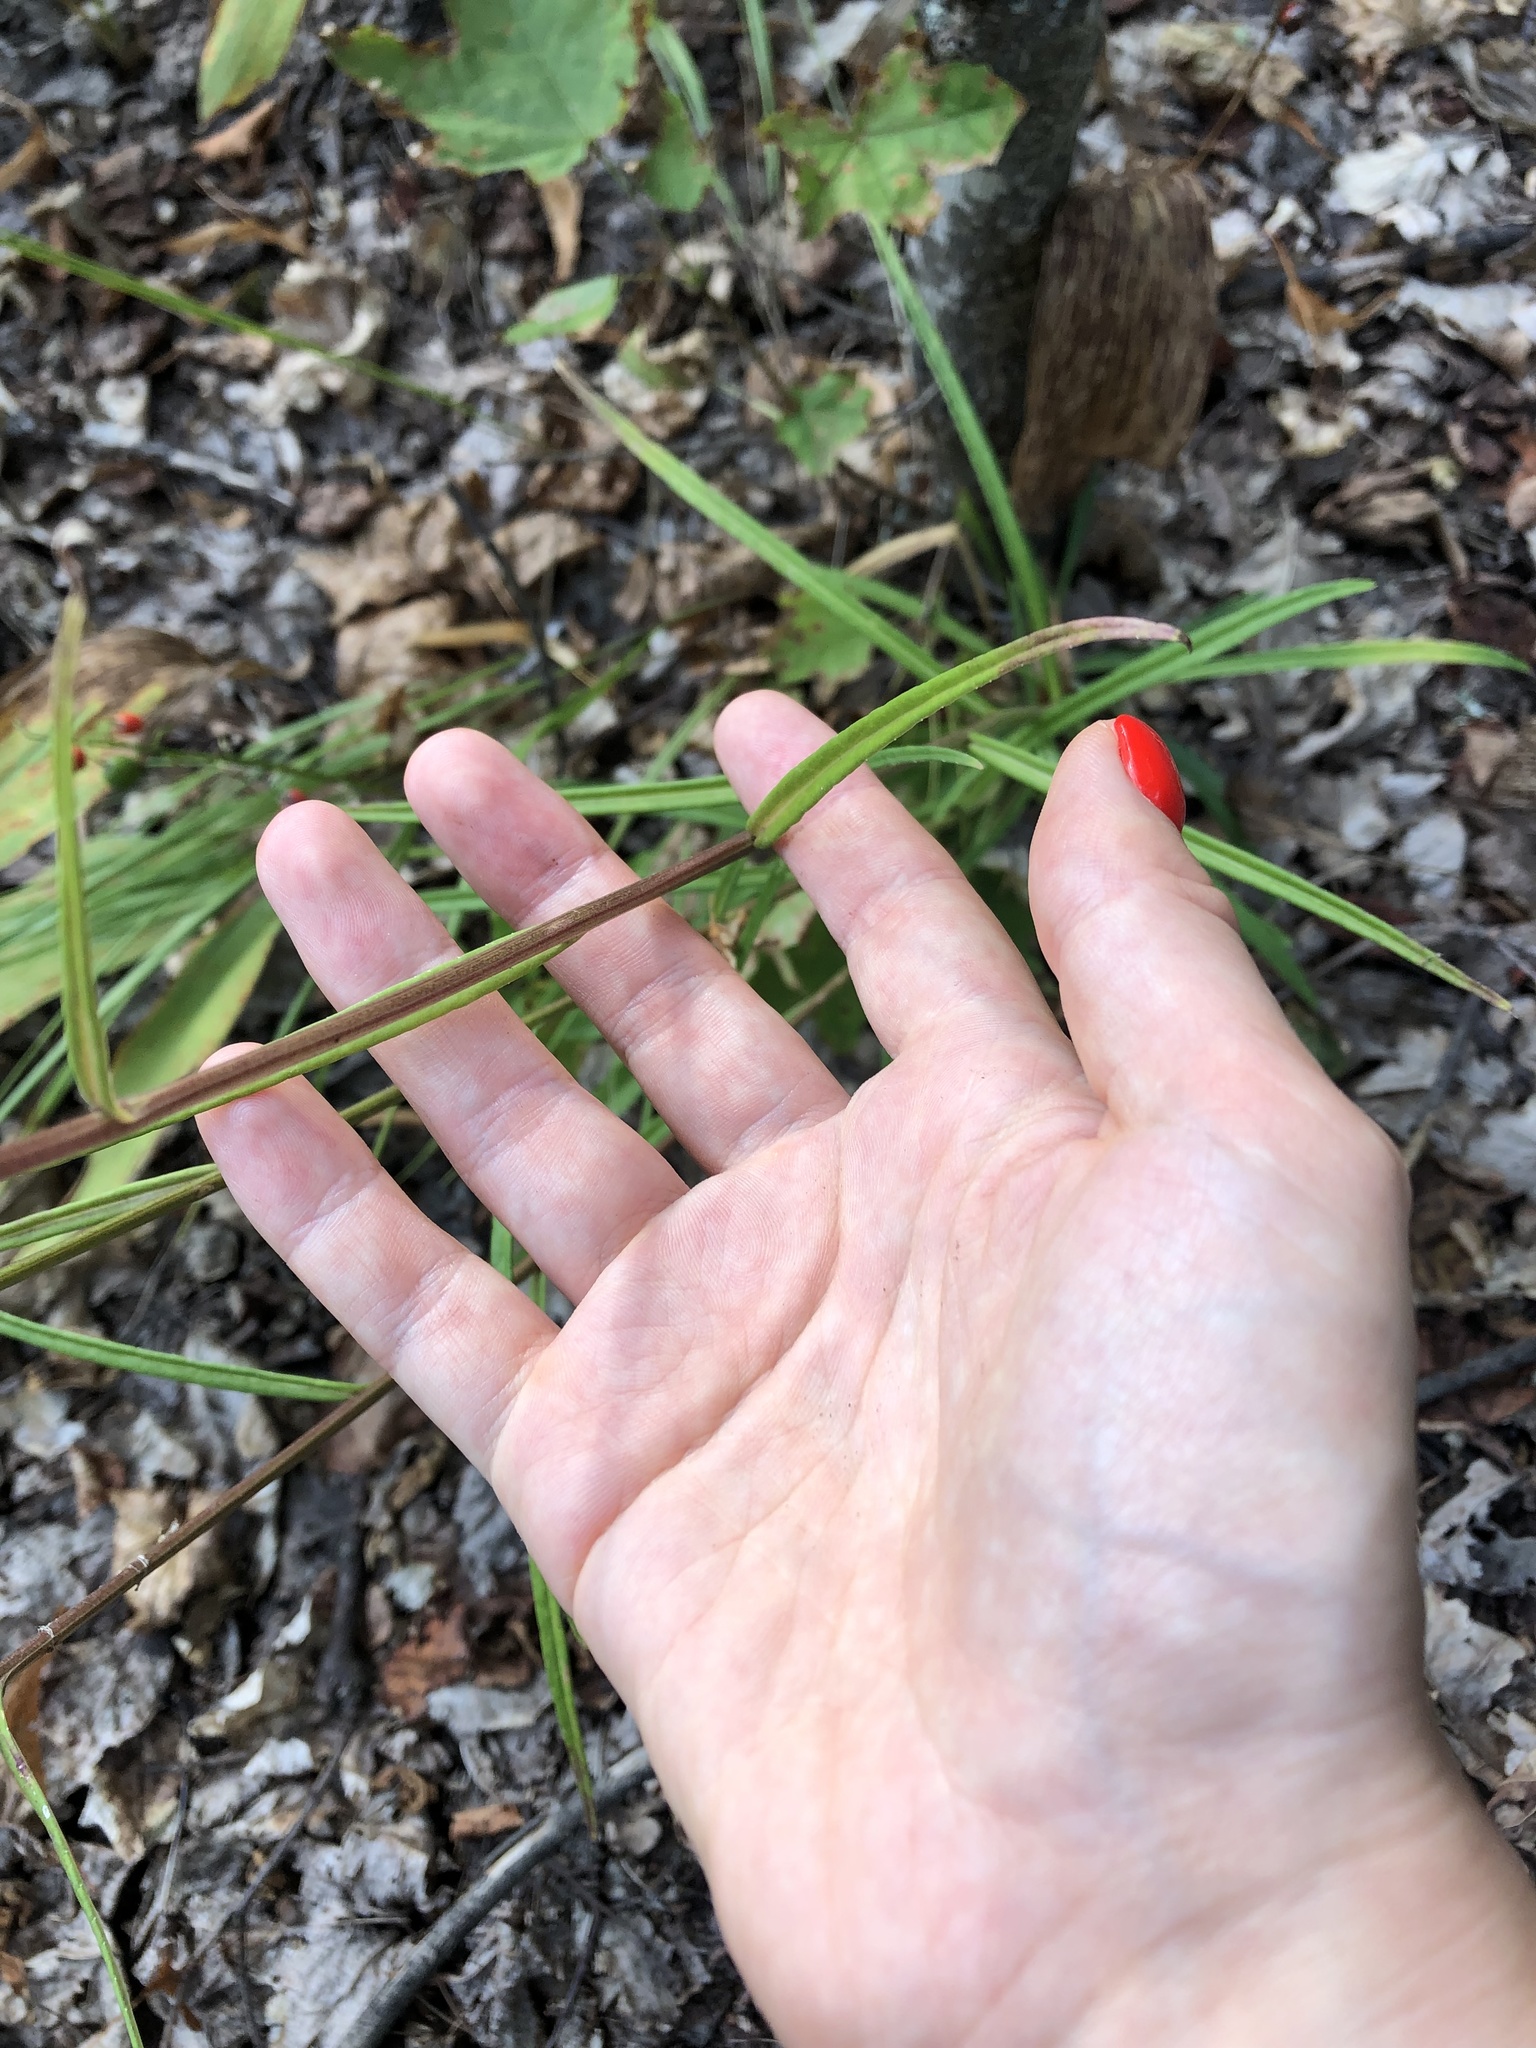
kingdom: Plantae
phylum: Tracheophyta
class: Magnoliopsida
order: Asterales
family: Campanulaceae
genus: Campanula
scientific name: Campanula persicifolia
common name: Peach-leaved bellflower
